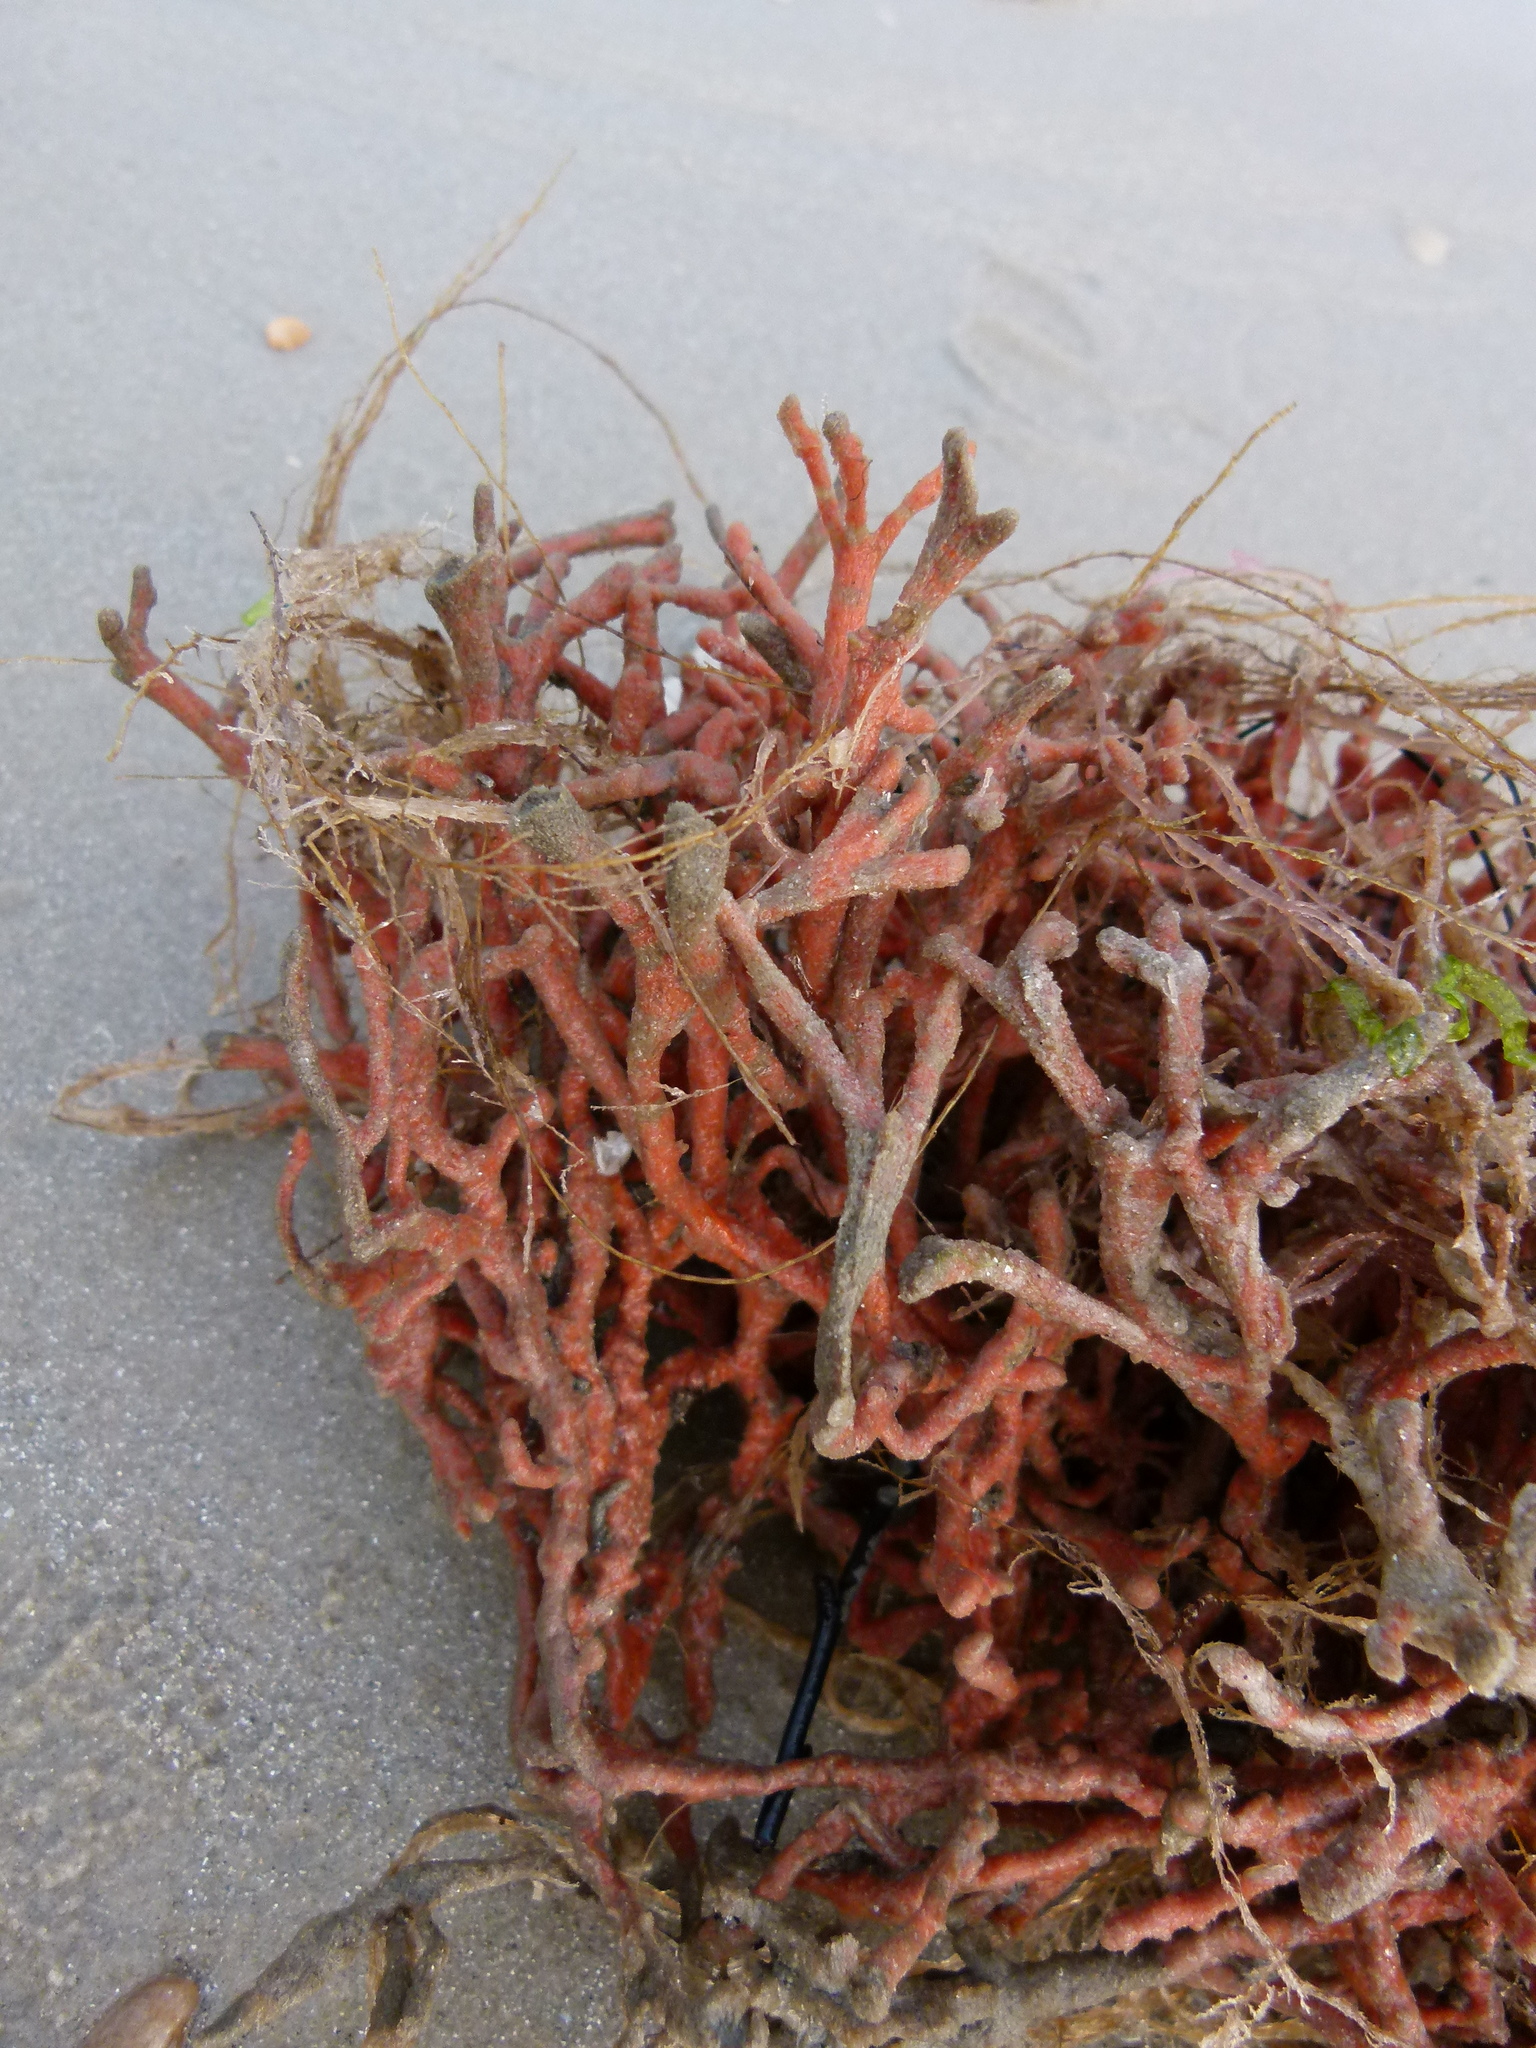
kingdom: Animalia
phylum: Porifera
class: Demospongiae
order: Poecilosclerida
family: Microcionidae
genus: Clathria
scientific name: Clathria prolifera
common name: Red beard sponge
